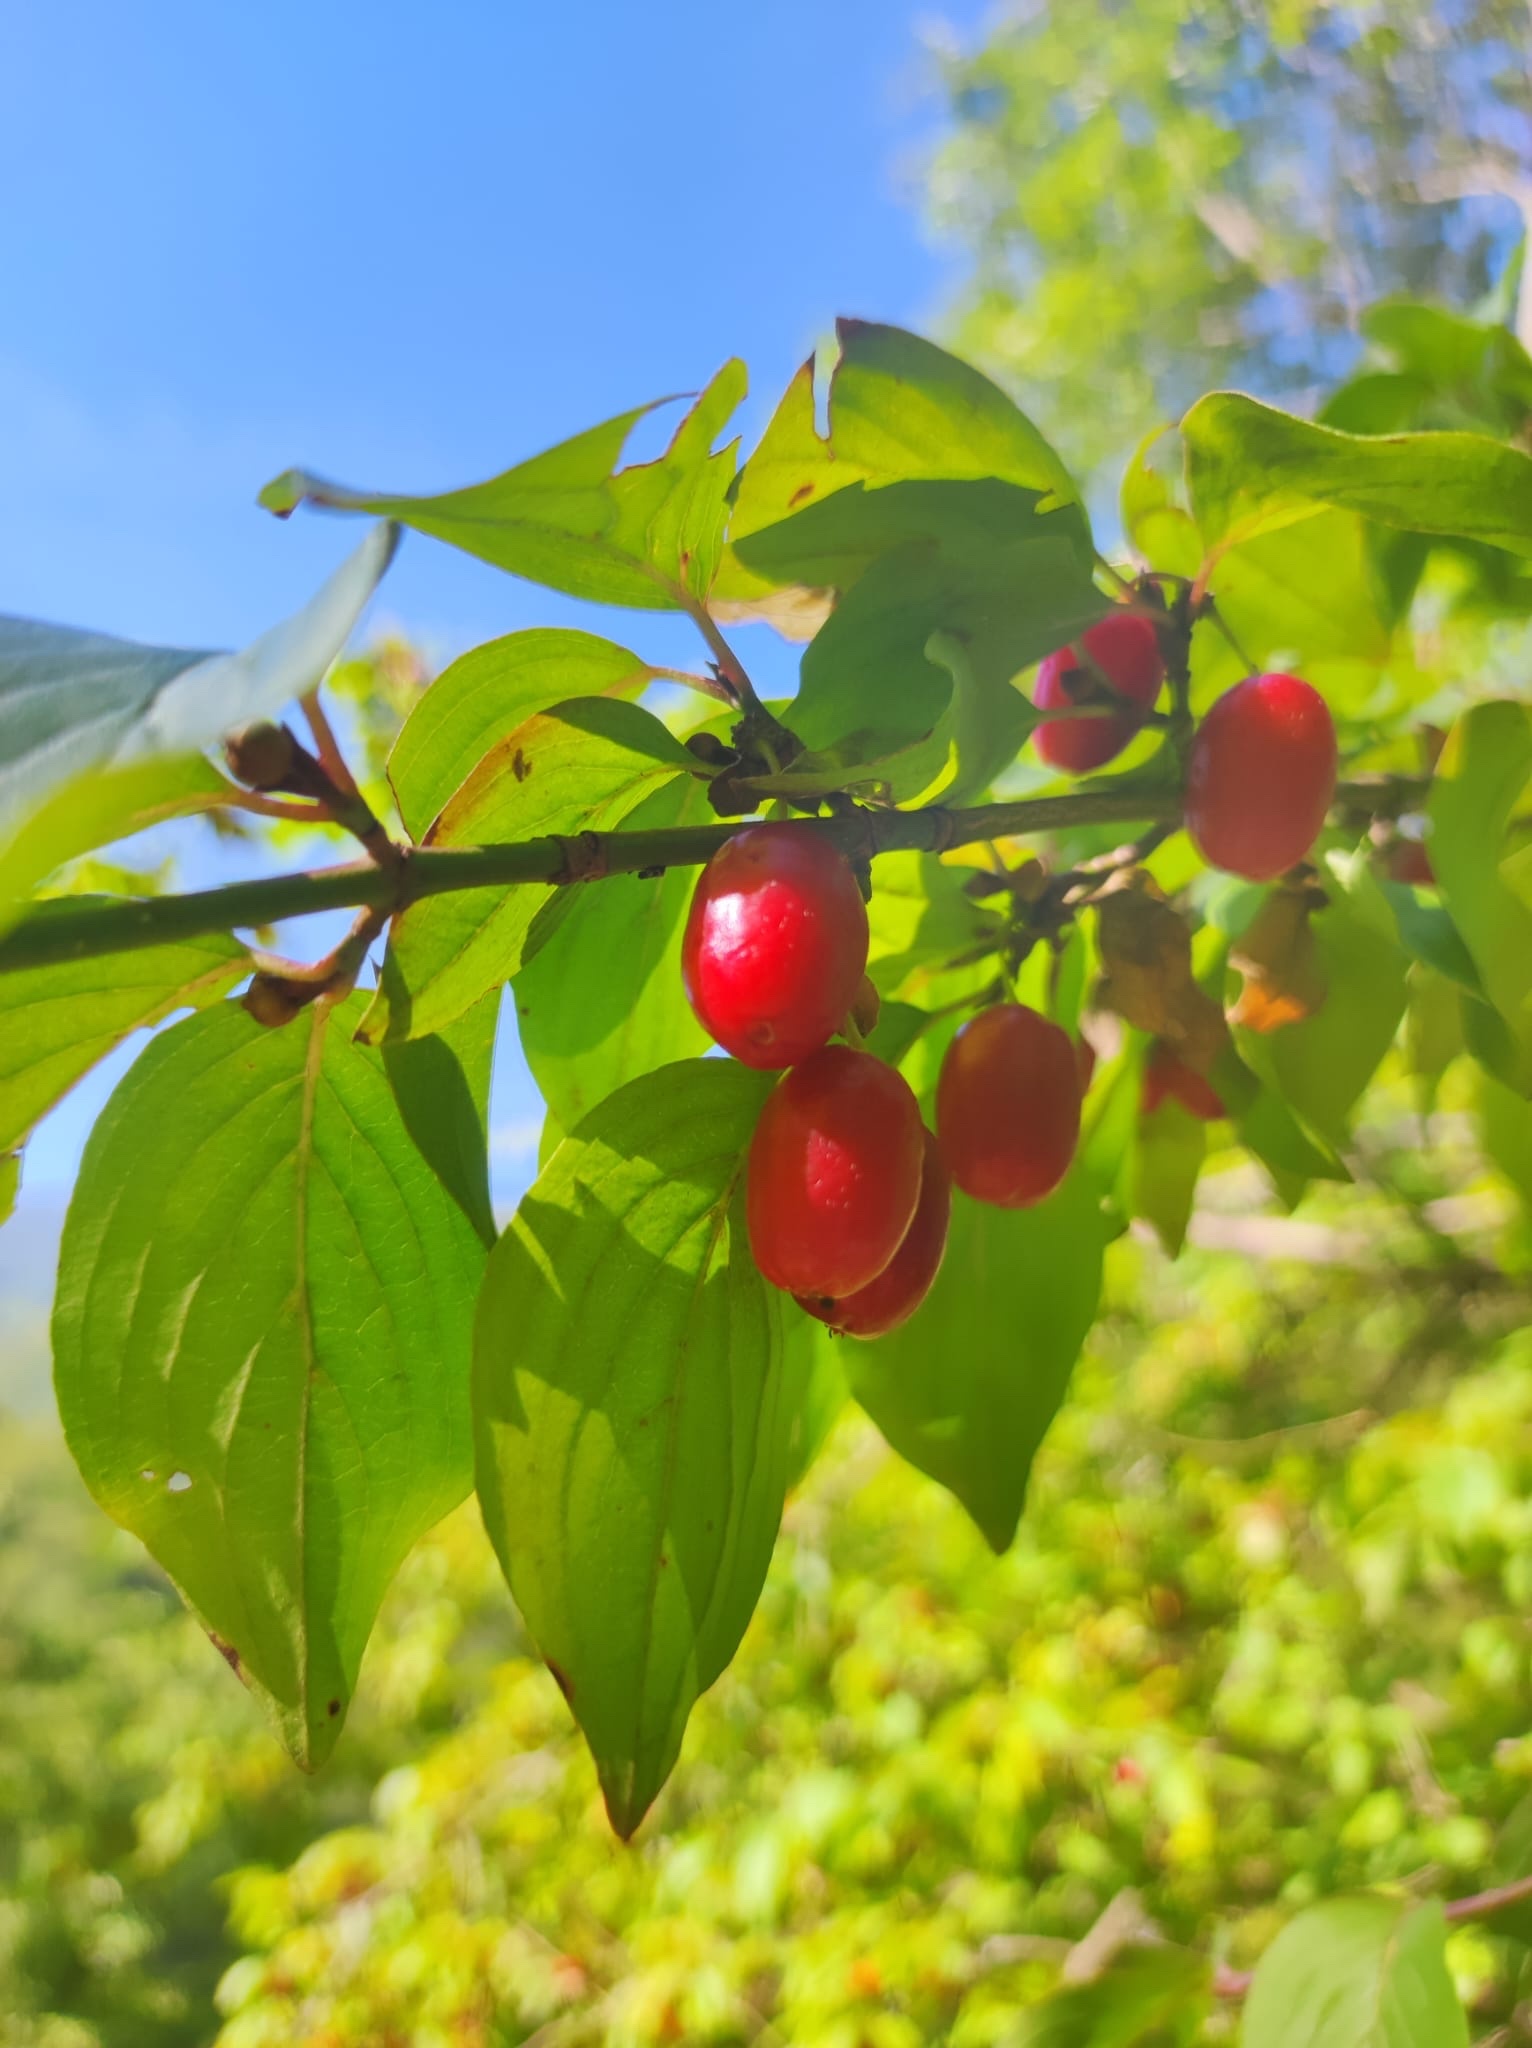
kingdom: Plantae
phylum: Tracheophyta
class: Magnoliopsida
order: Cornales
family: Cornaceae
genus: Cornus
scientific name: Cornus mas
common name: Cornelian-cherry
